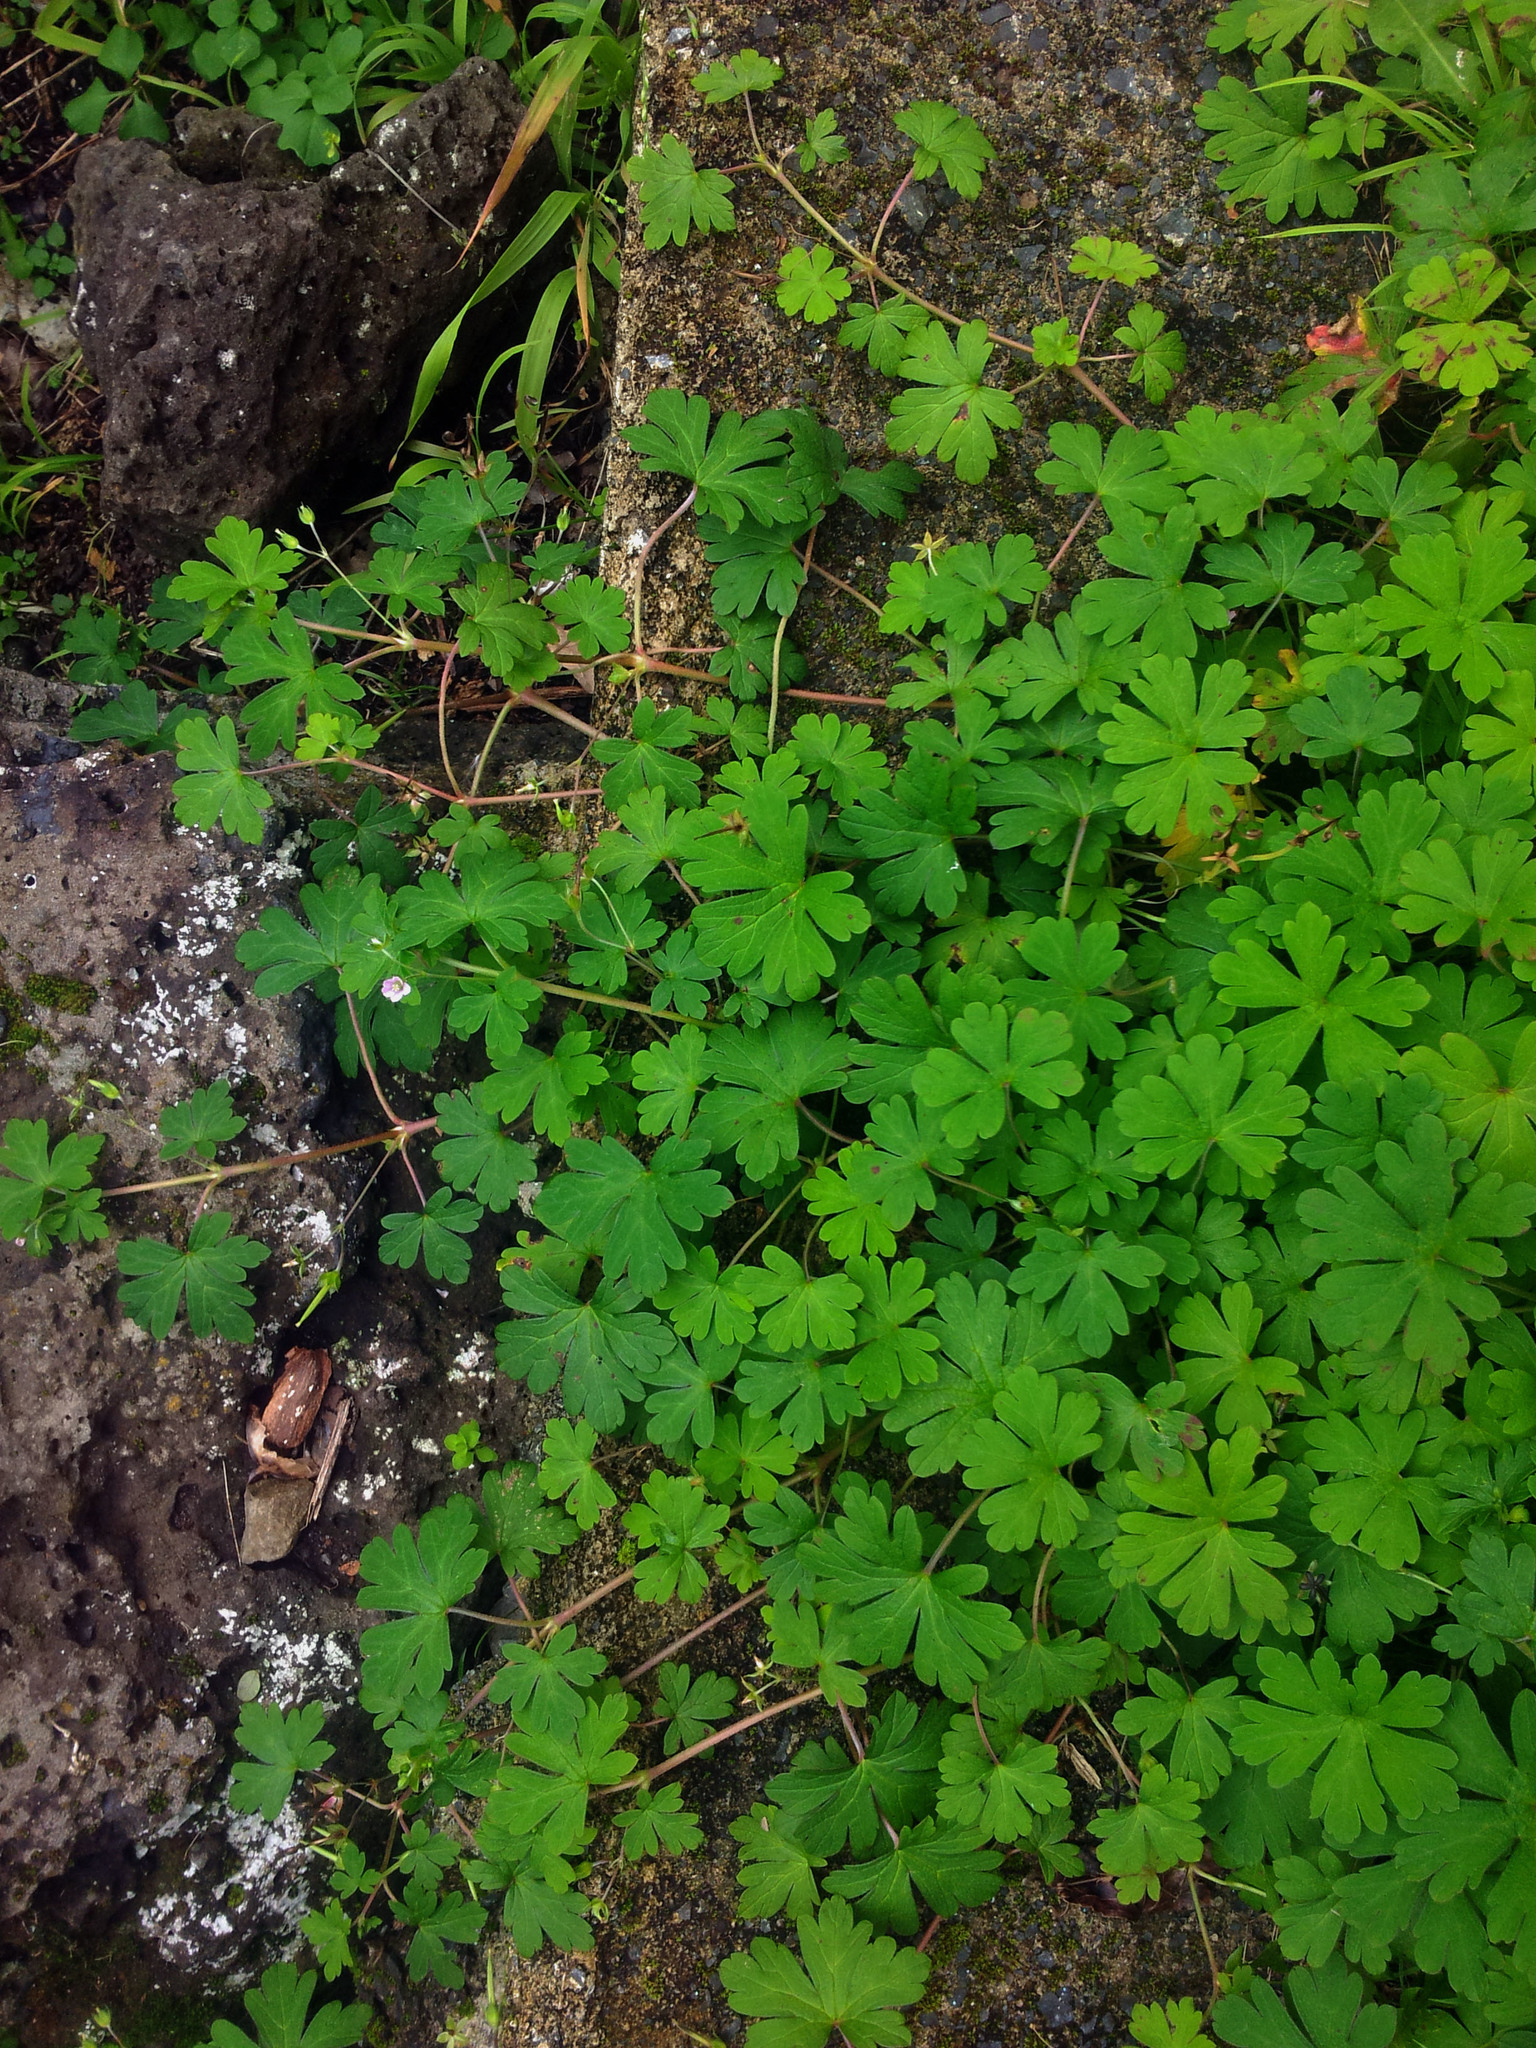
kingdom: Plantae
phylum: Tracheophyta
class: Magnoliopsida
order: Geraniales
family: Geraniaceae
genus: Geranium
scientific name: Geranium homeanum
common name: Australasian geranium
